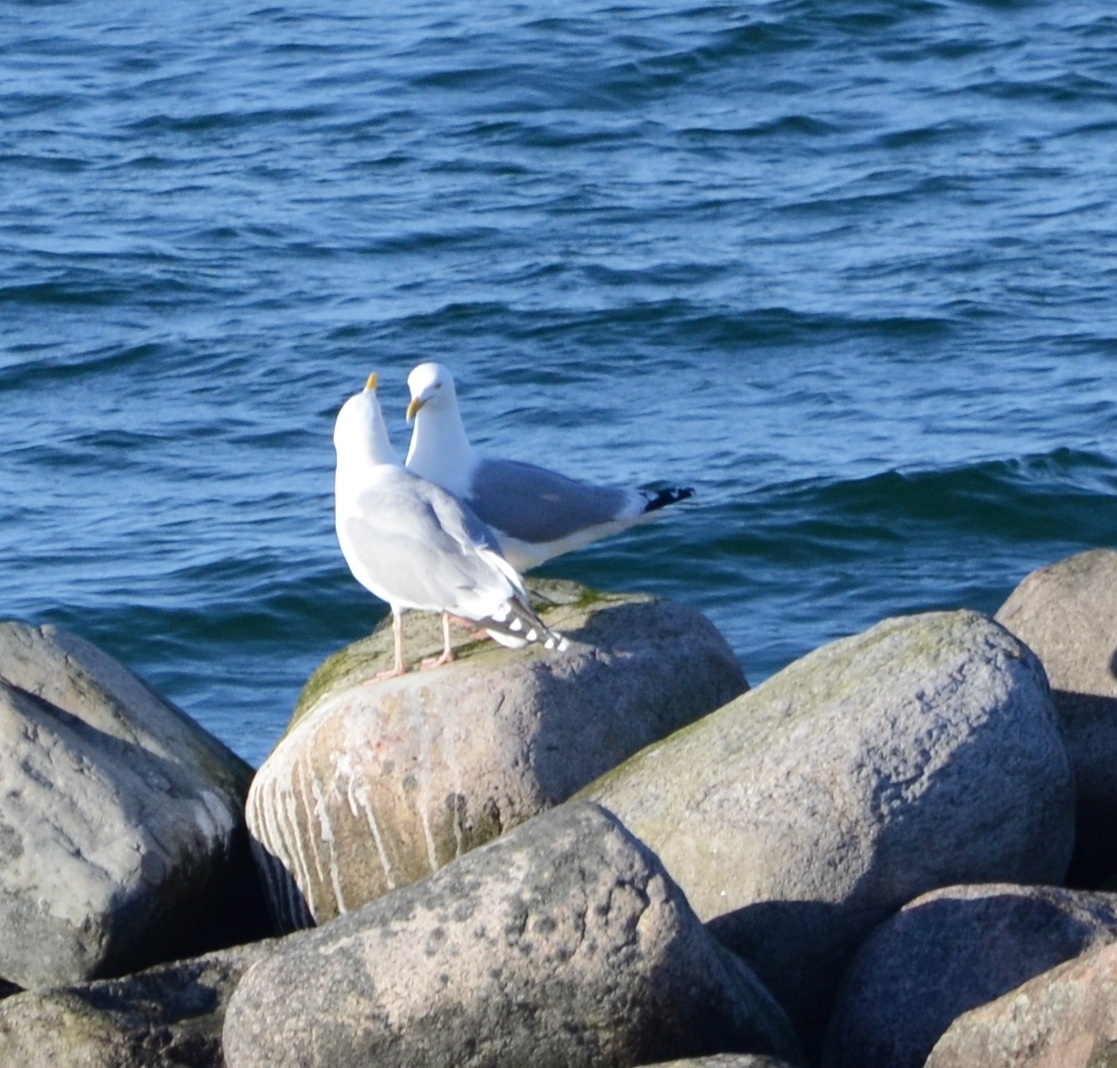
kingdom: Animalia
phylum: Chordata
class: Aves
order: Charadriiformes
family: Laridae
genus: Larus
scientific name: Larus argentatus
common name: Herring gull
